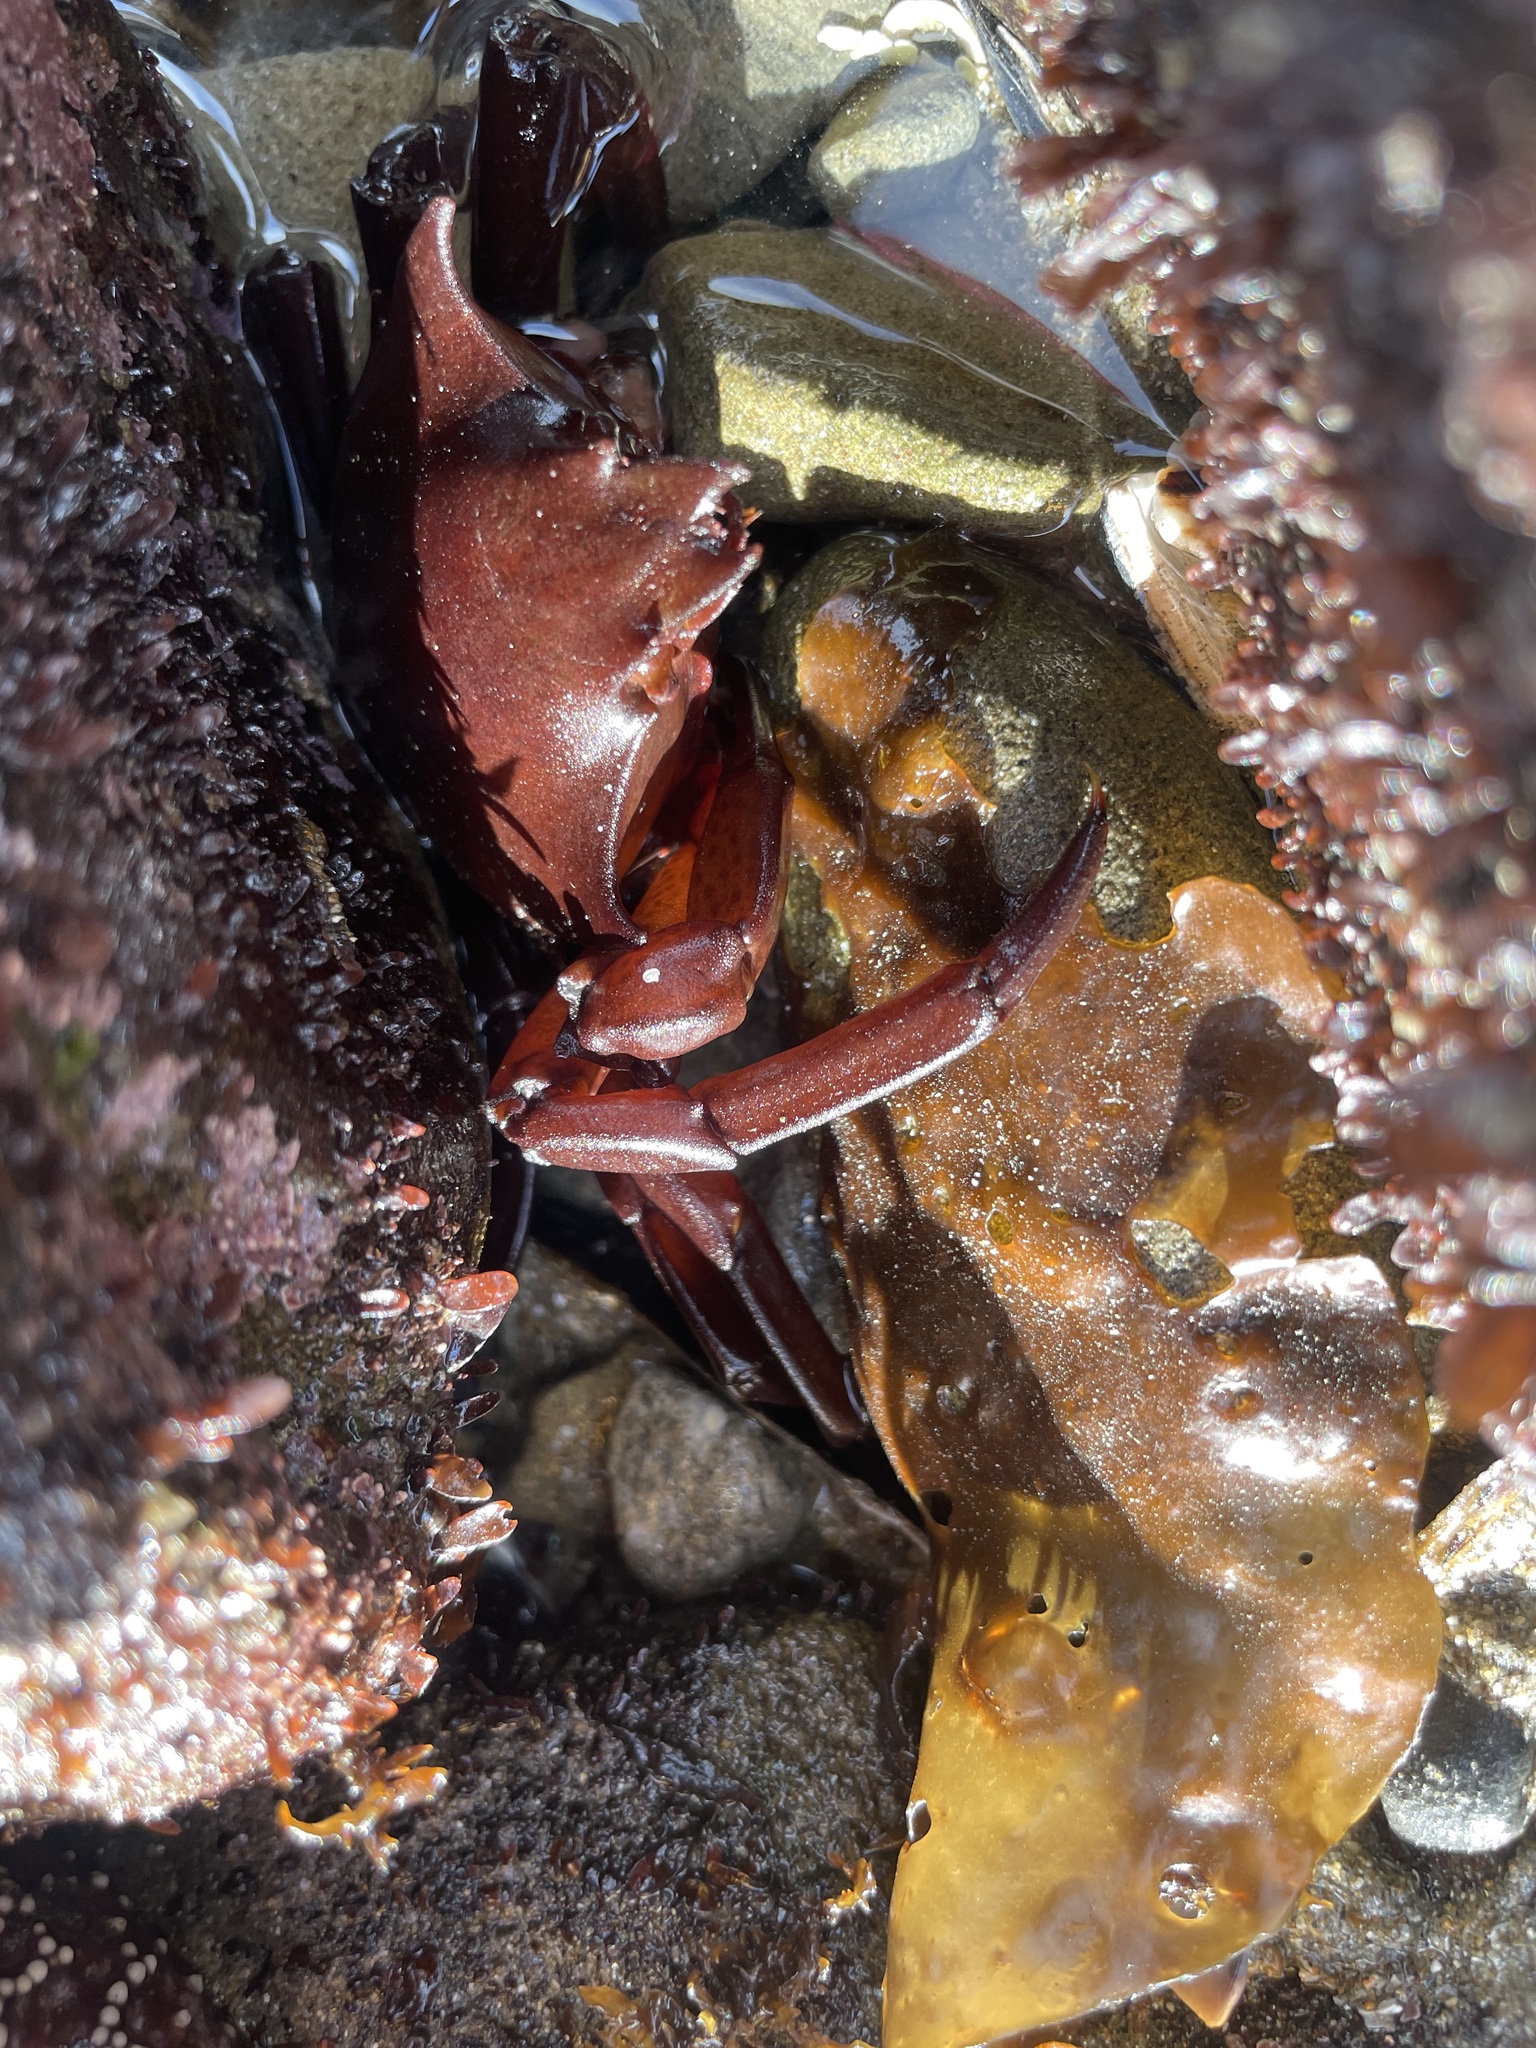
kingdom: Animalia
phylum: Arthropoda
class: Malacostraca
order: Decapoda
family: Epialtidae
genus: Pugettia
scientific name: Pugettia producta
